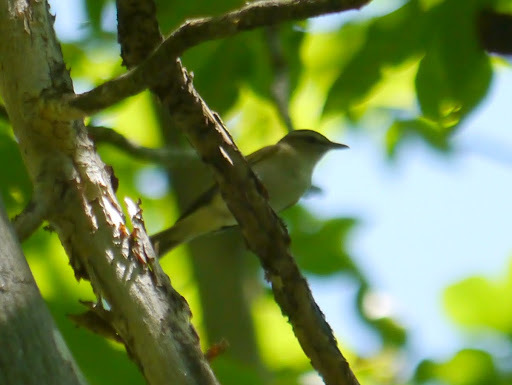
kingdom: Animalia
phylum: Chordata
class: Aves
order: Passeriformes
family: Vireonidae
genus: Vireo
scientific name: Vireo olivaceus
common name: Red-eyed vireo
